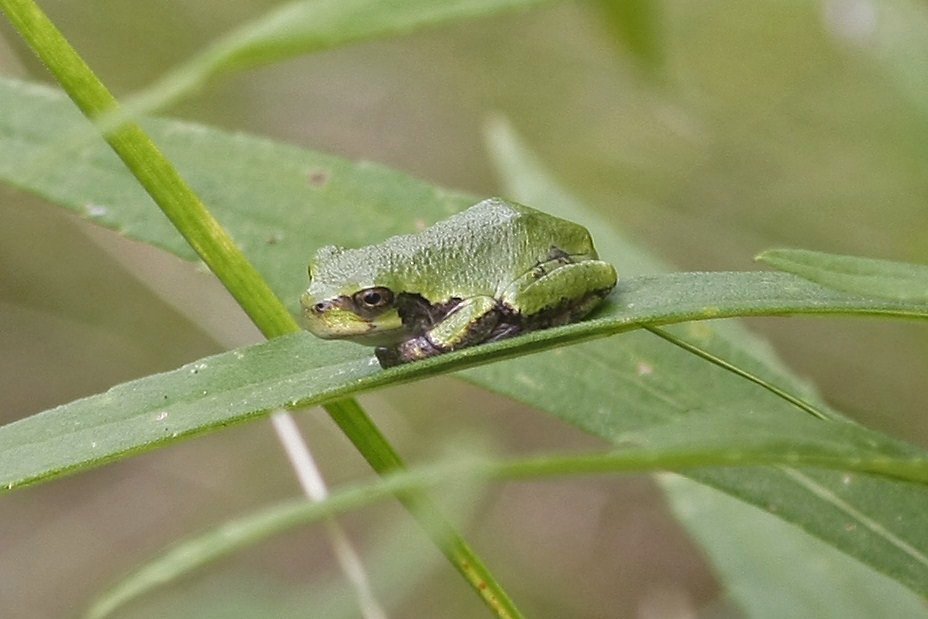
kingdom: Animalia
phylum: Chordata
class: Amphibia
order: Anura
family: Hylidae
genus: Dryophytes
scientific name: Dryophytes versicolor
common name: Gray treefrog
